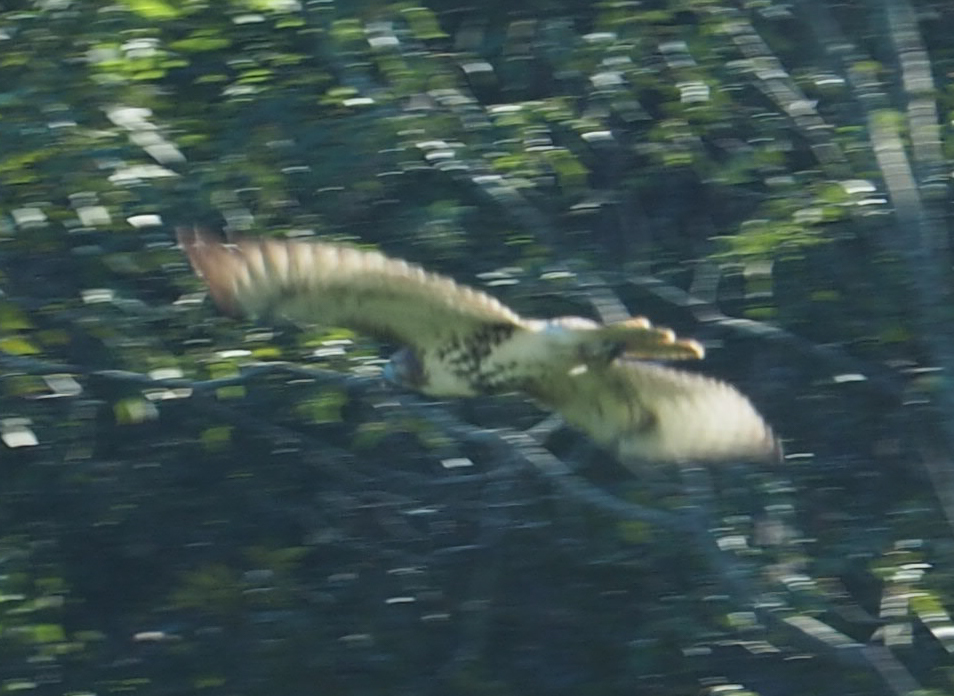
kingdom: Animalia
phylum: Chordata
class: Aves
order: Accipitriformes
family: Accipitridae
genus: Buteo
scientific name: Buteo jamaicensis
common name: Red-tailed hawk
